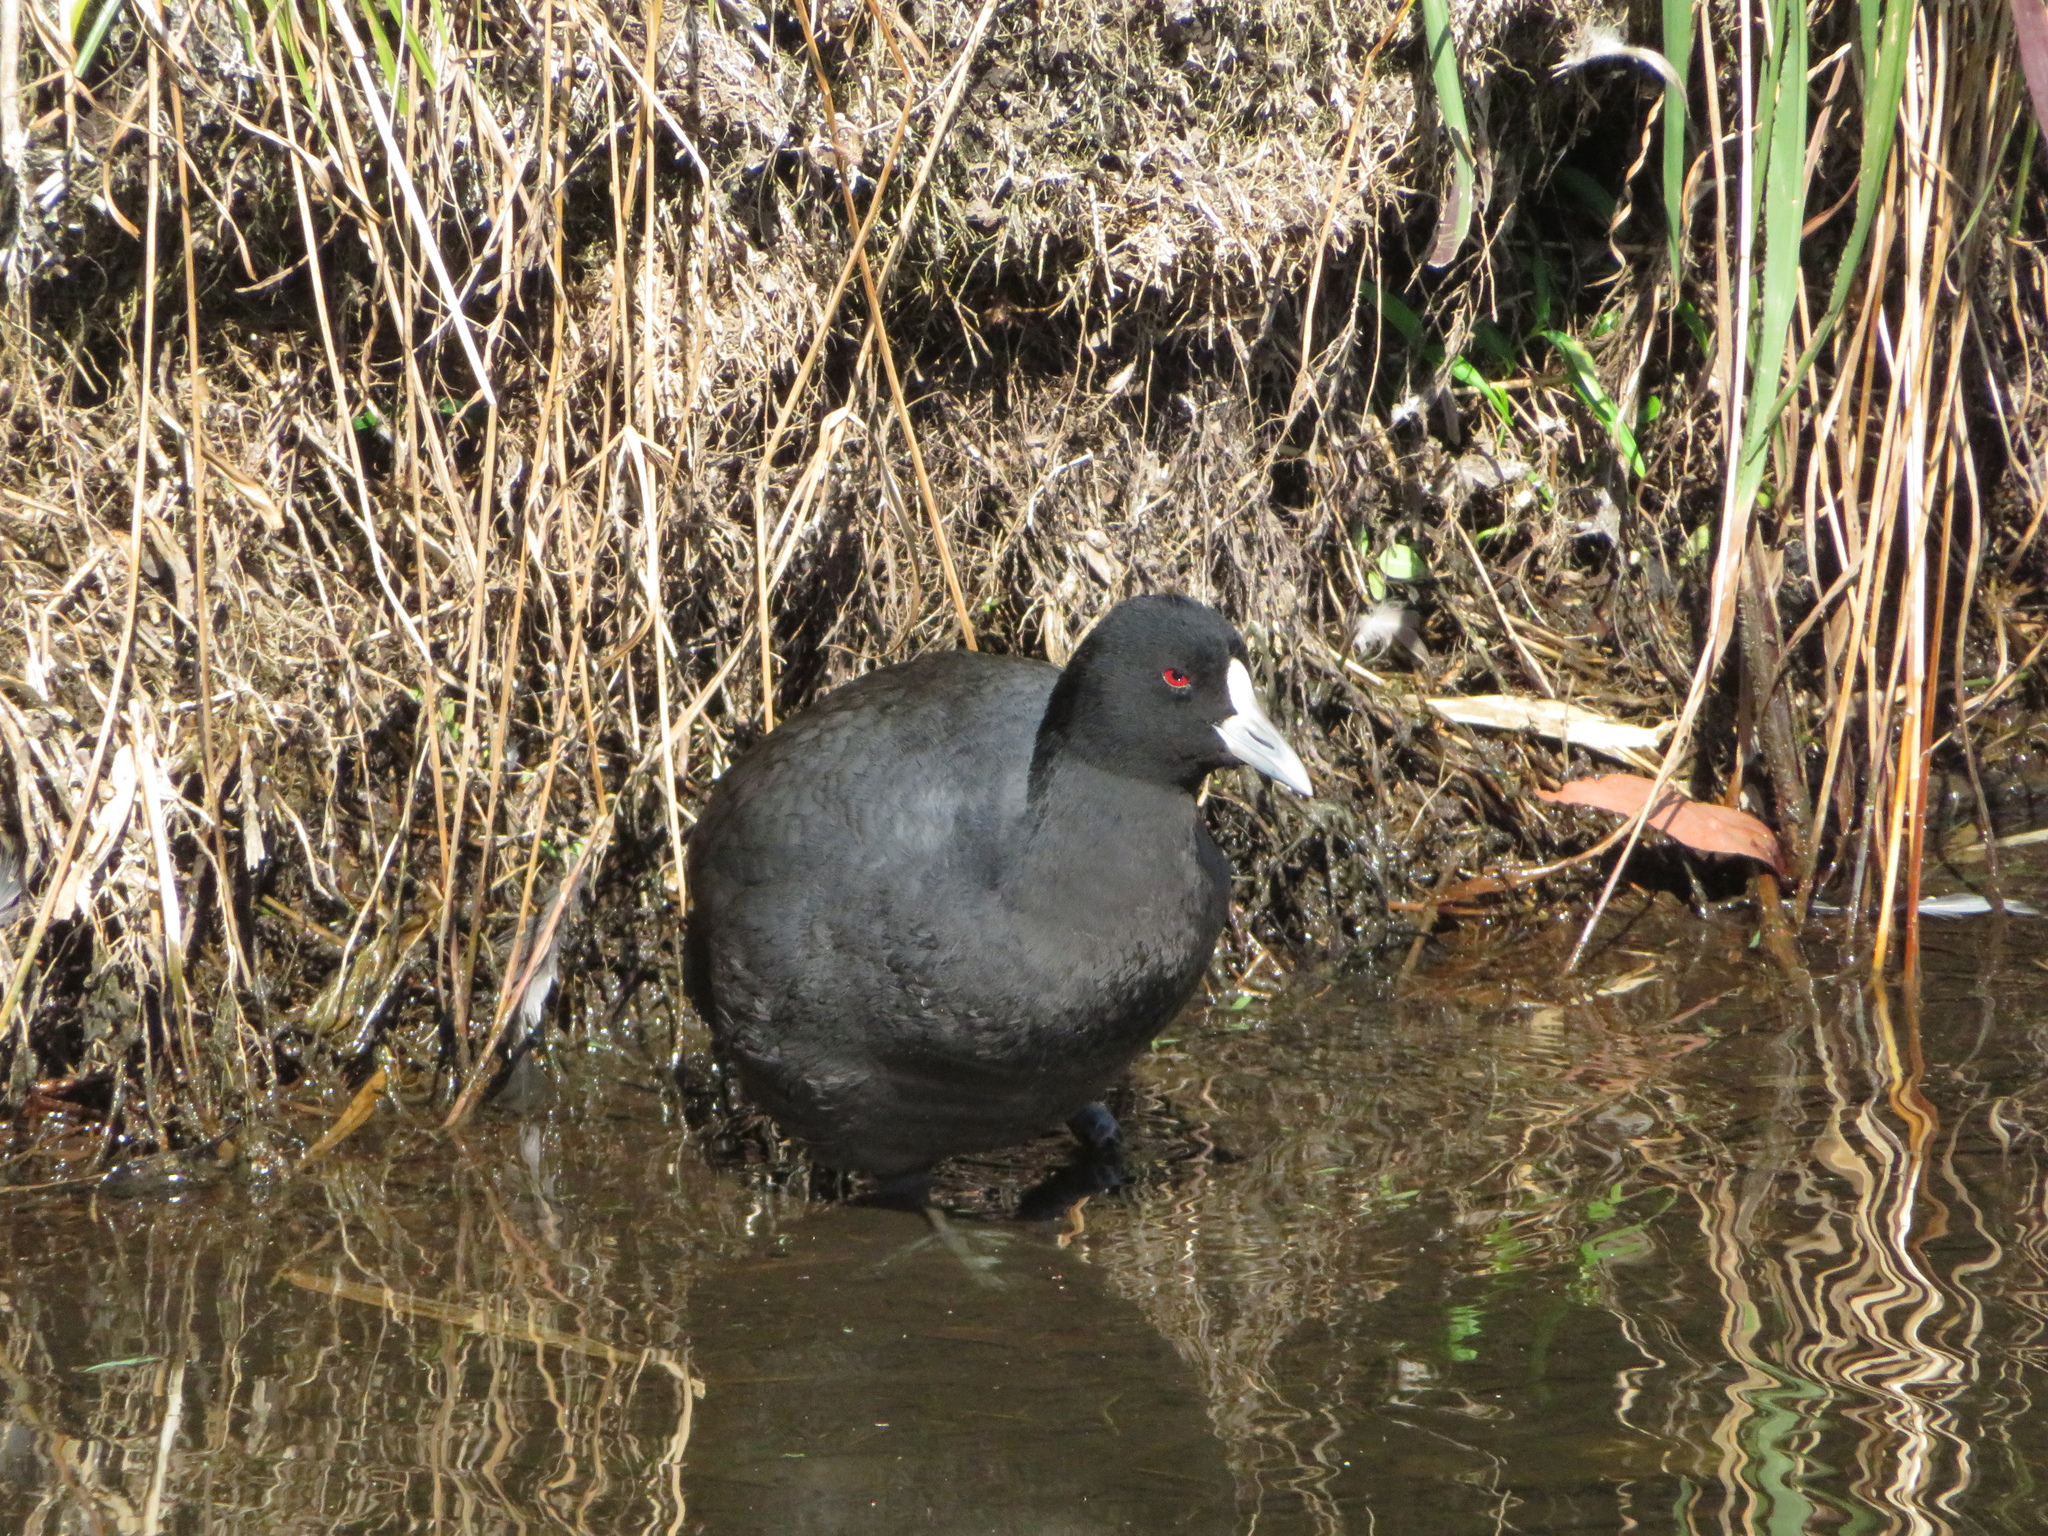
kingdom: Animalia
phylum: Chordata
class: Aves
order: Gruiformes
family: Rallidae
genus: Fulica
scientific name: Fulica atra
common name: Eurasian coot
